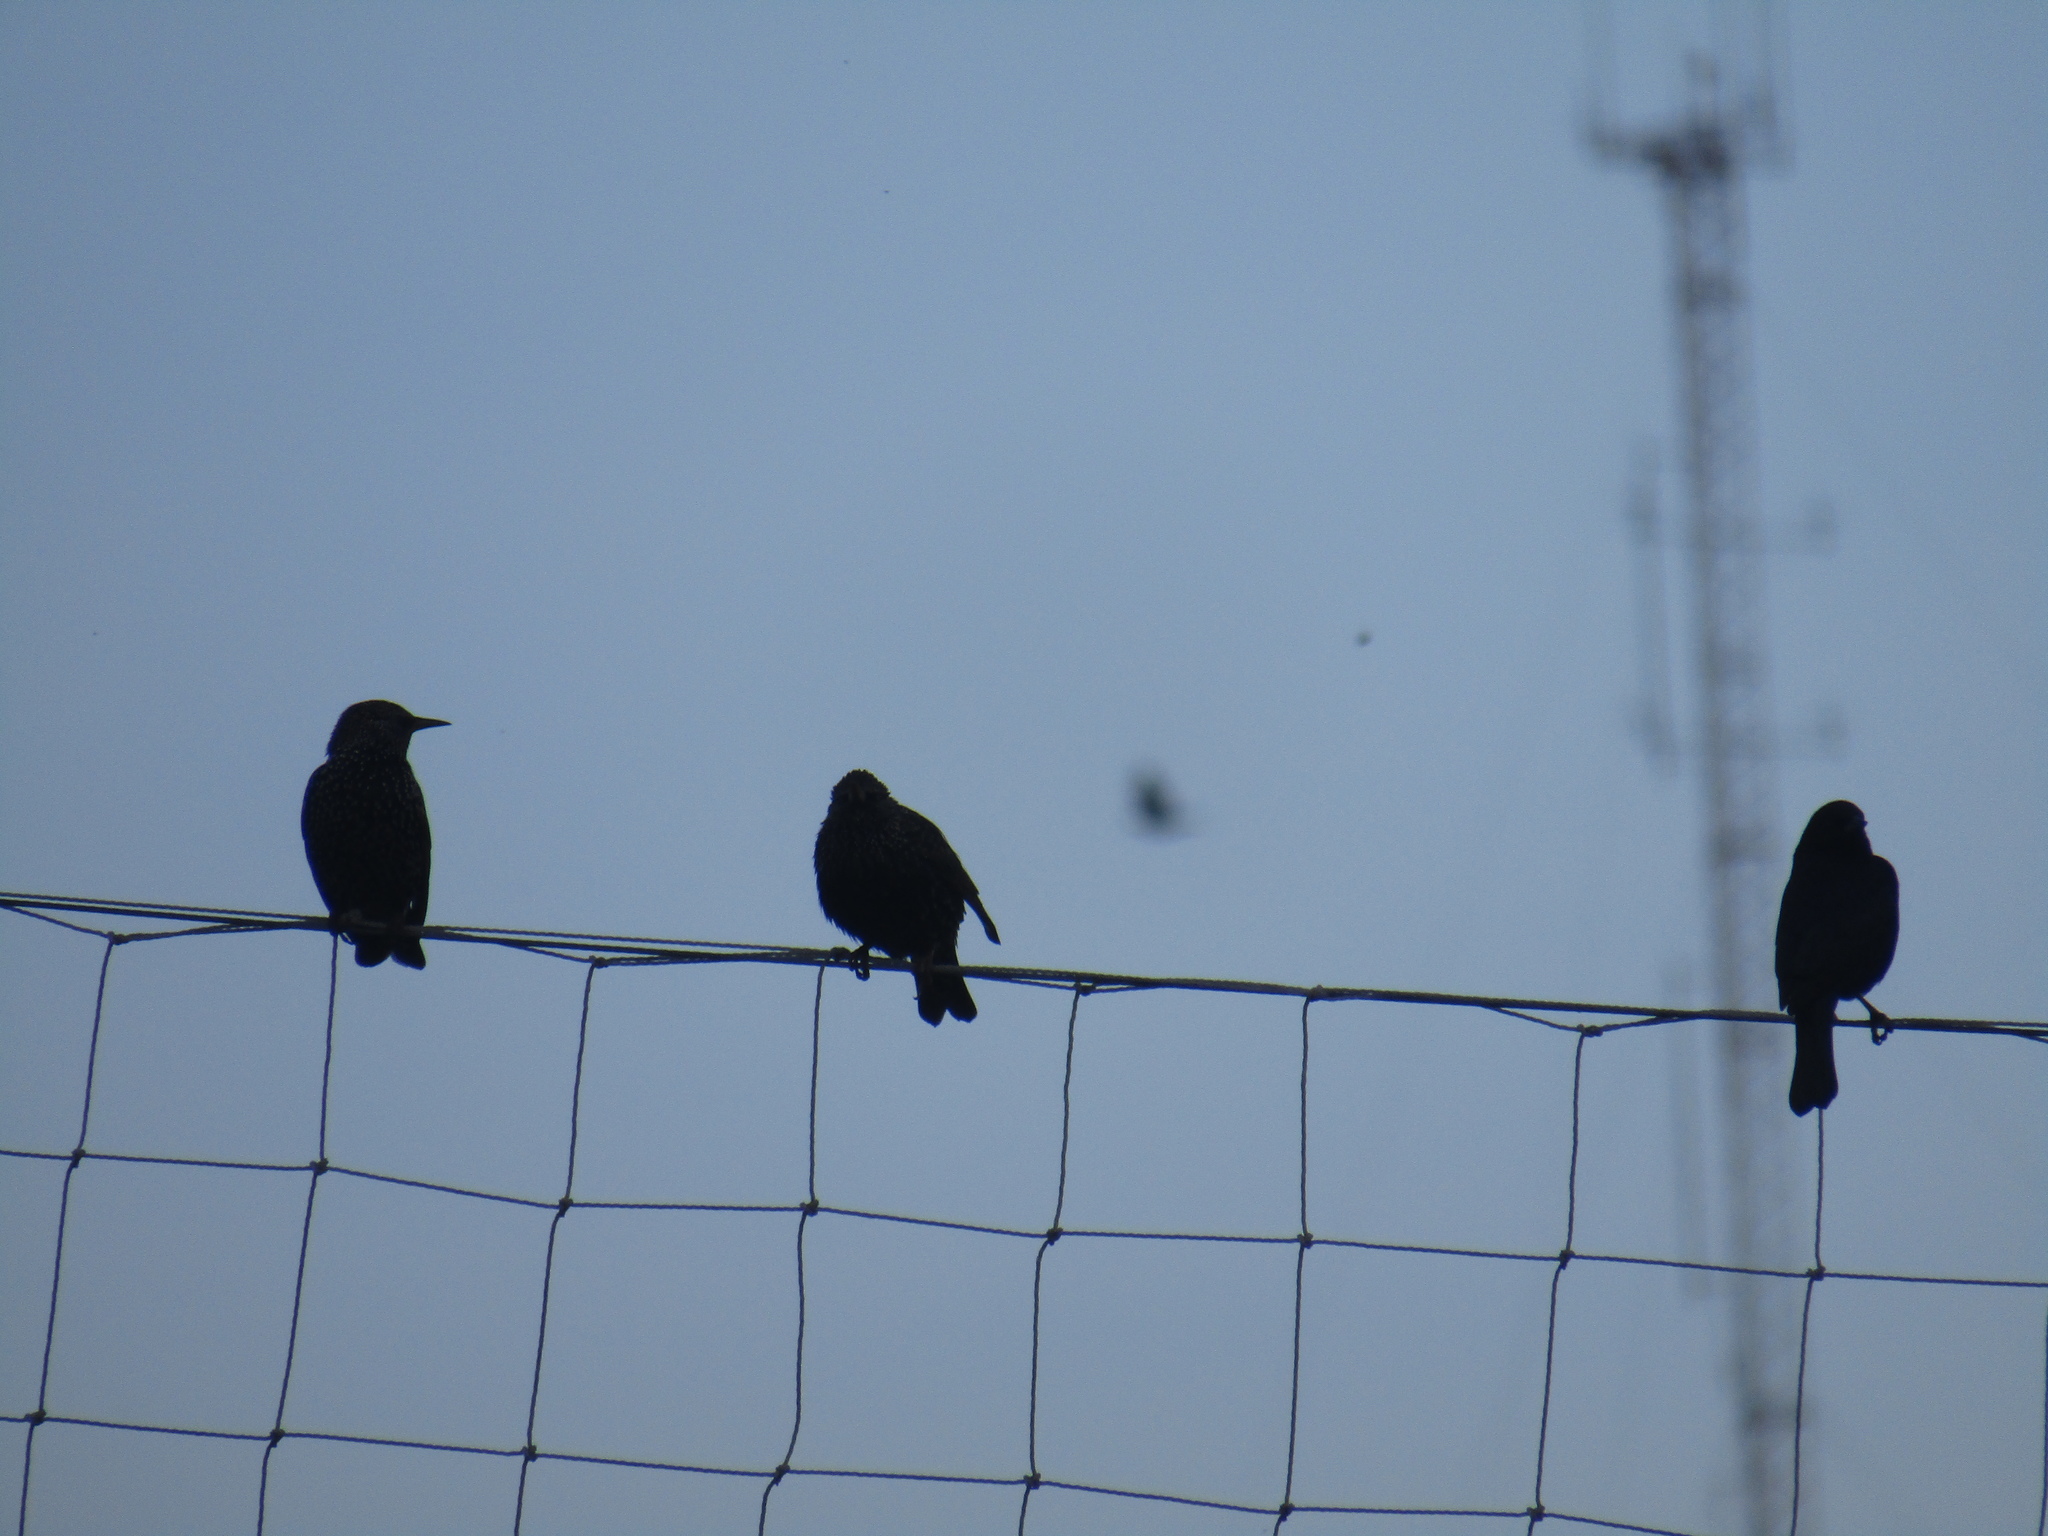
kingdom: Animalia
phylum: Chordata
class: Aves
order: Passeriformes
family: Sturnidae
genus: Sturnus
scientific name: Sturnus vulgaris
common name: Common starling
